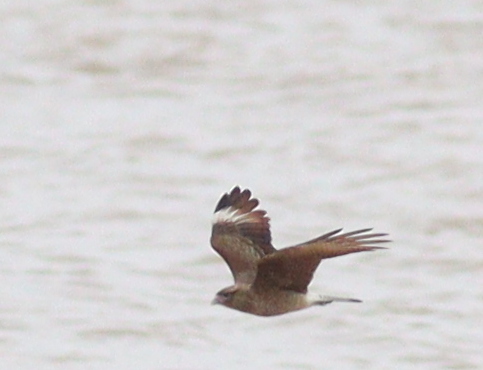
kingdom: Animalia
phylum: Chordata
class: Aves
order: Falconiformes
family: Falconidae
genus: Daptrius
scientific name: Daptrius
